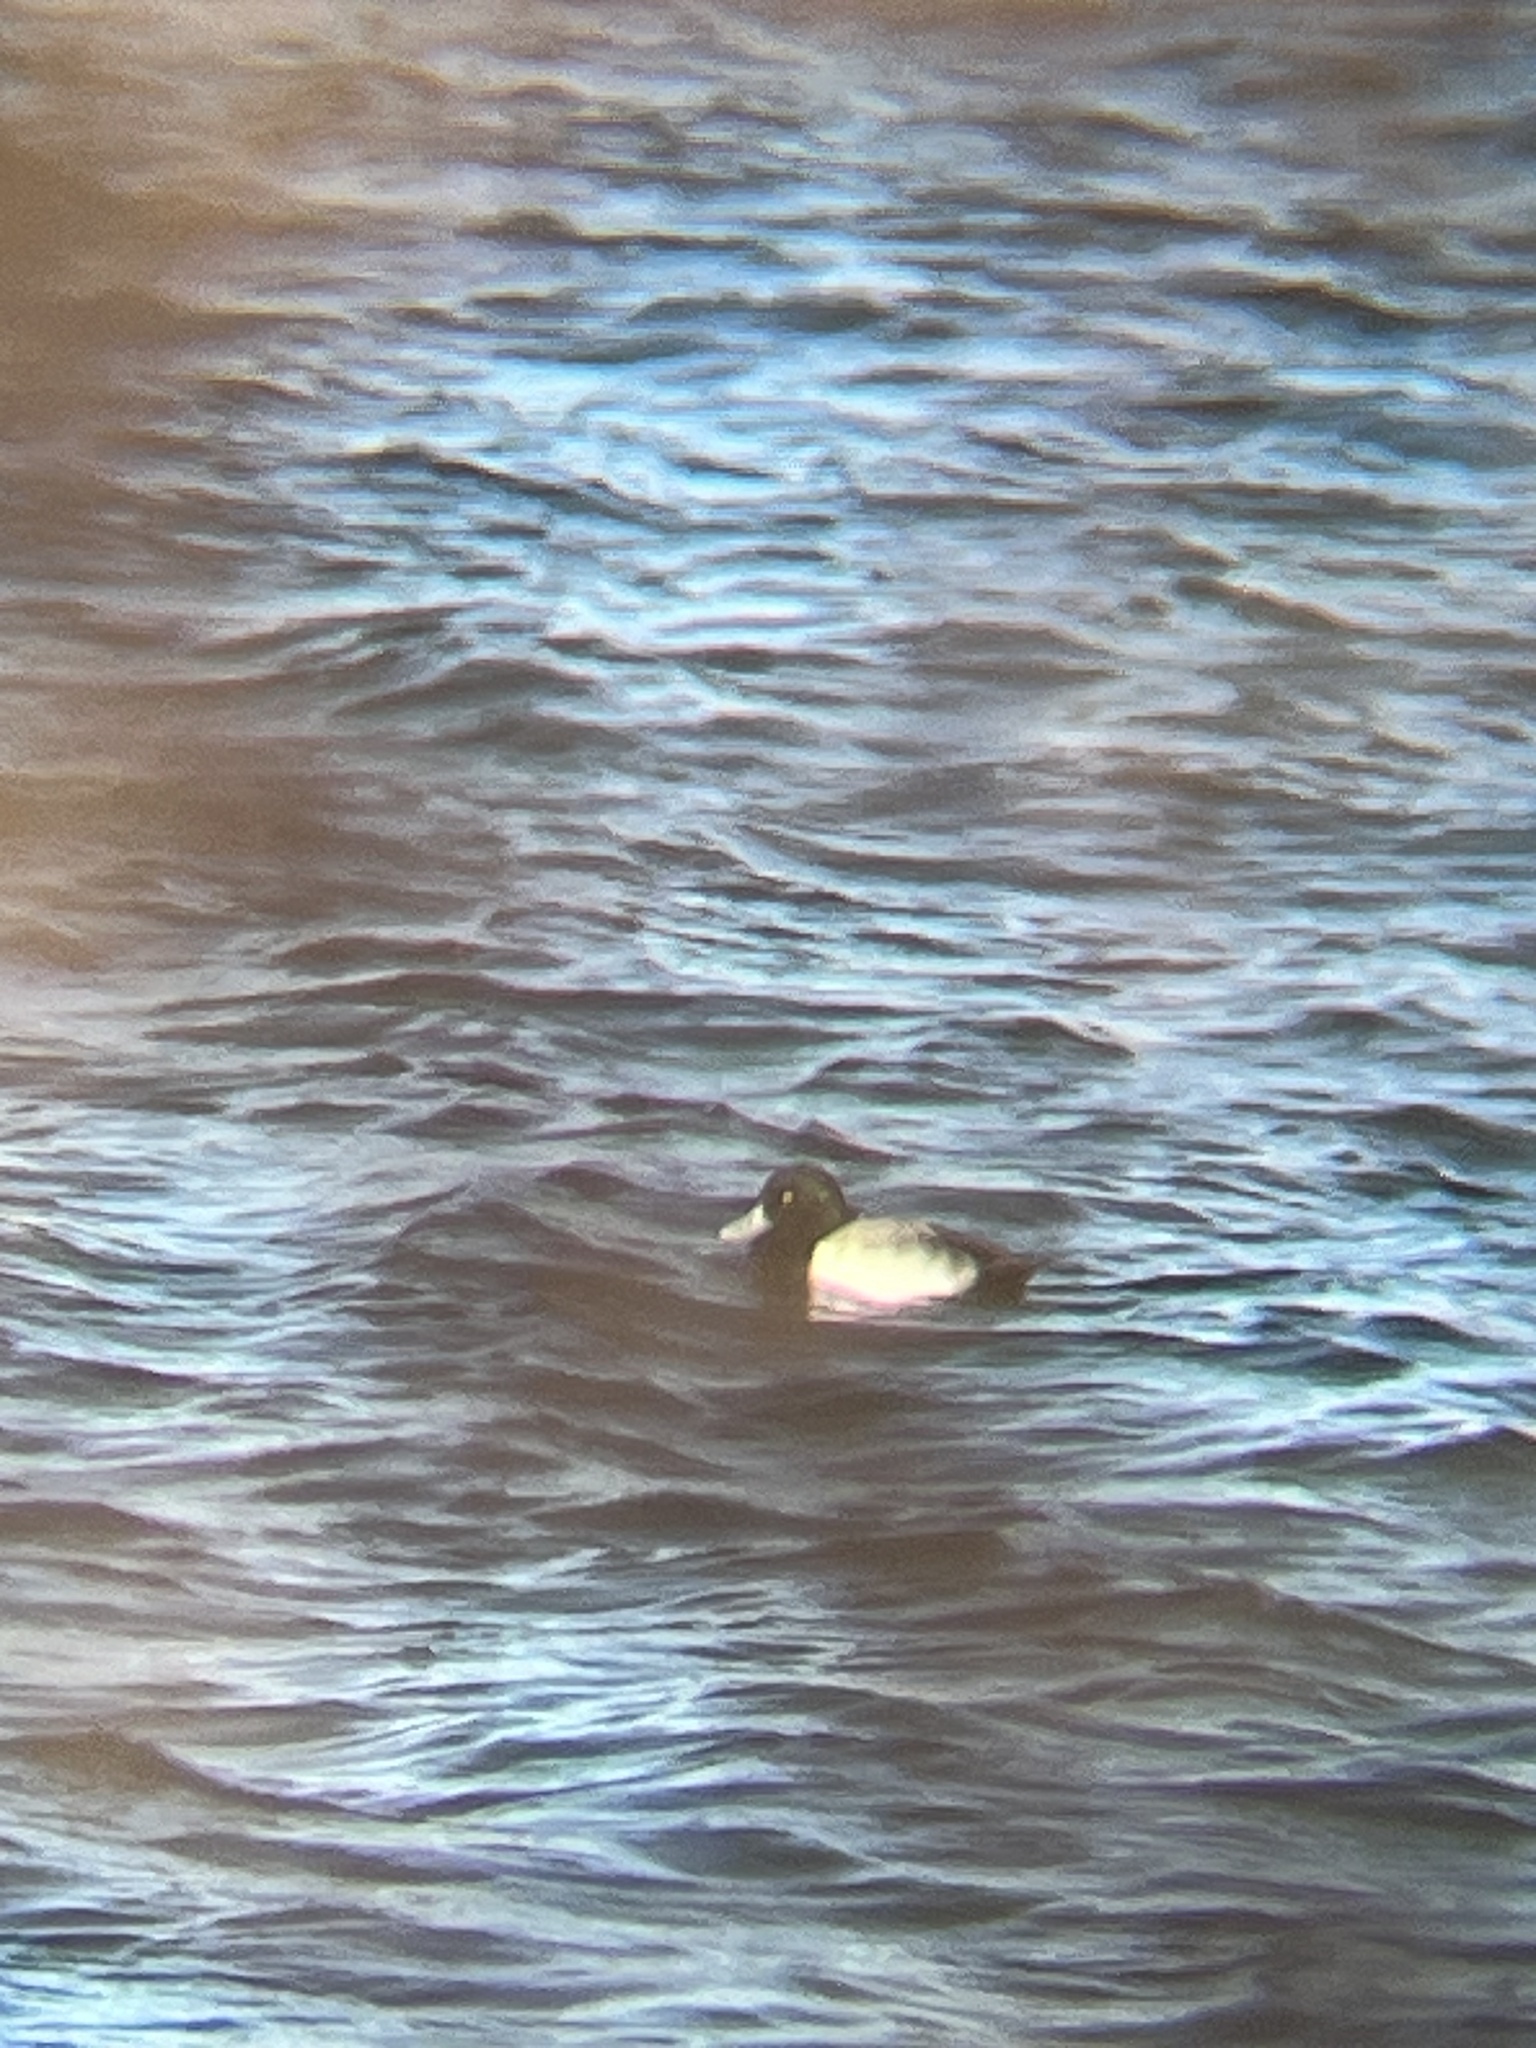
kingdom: Animalia
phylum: Chordata
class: Aves
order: Anseriformes
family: Anatidae
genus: Aythya
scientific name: Aythya marila
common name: Greater scaup
